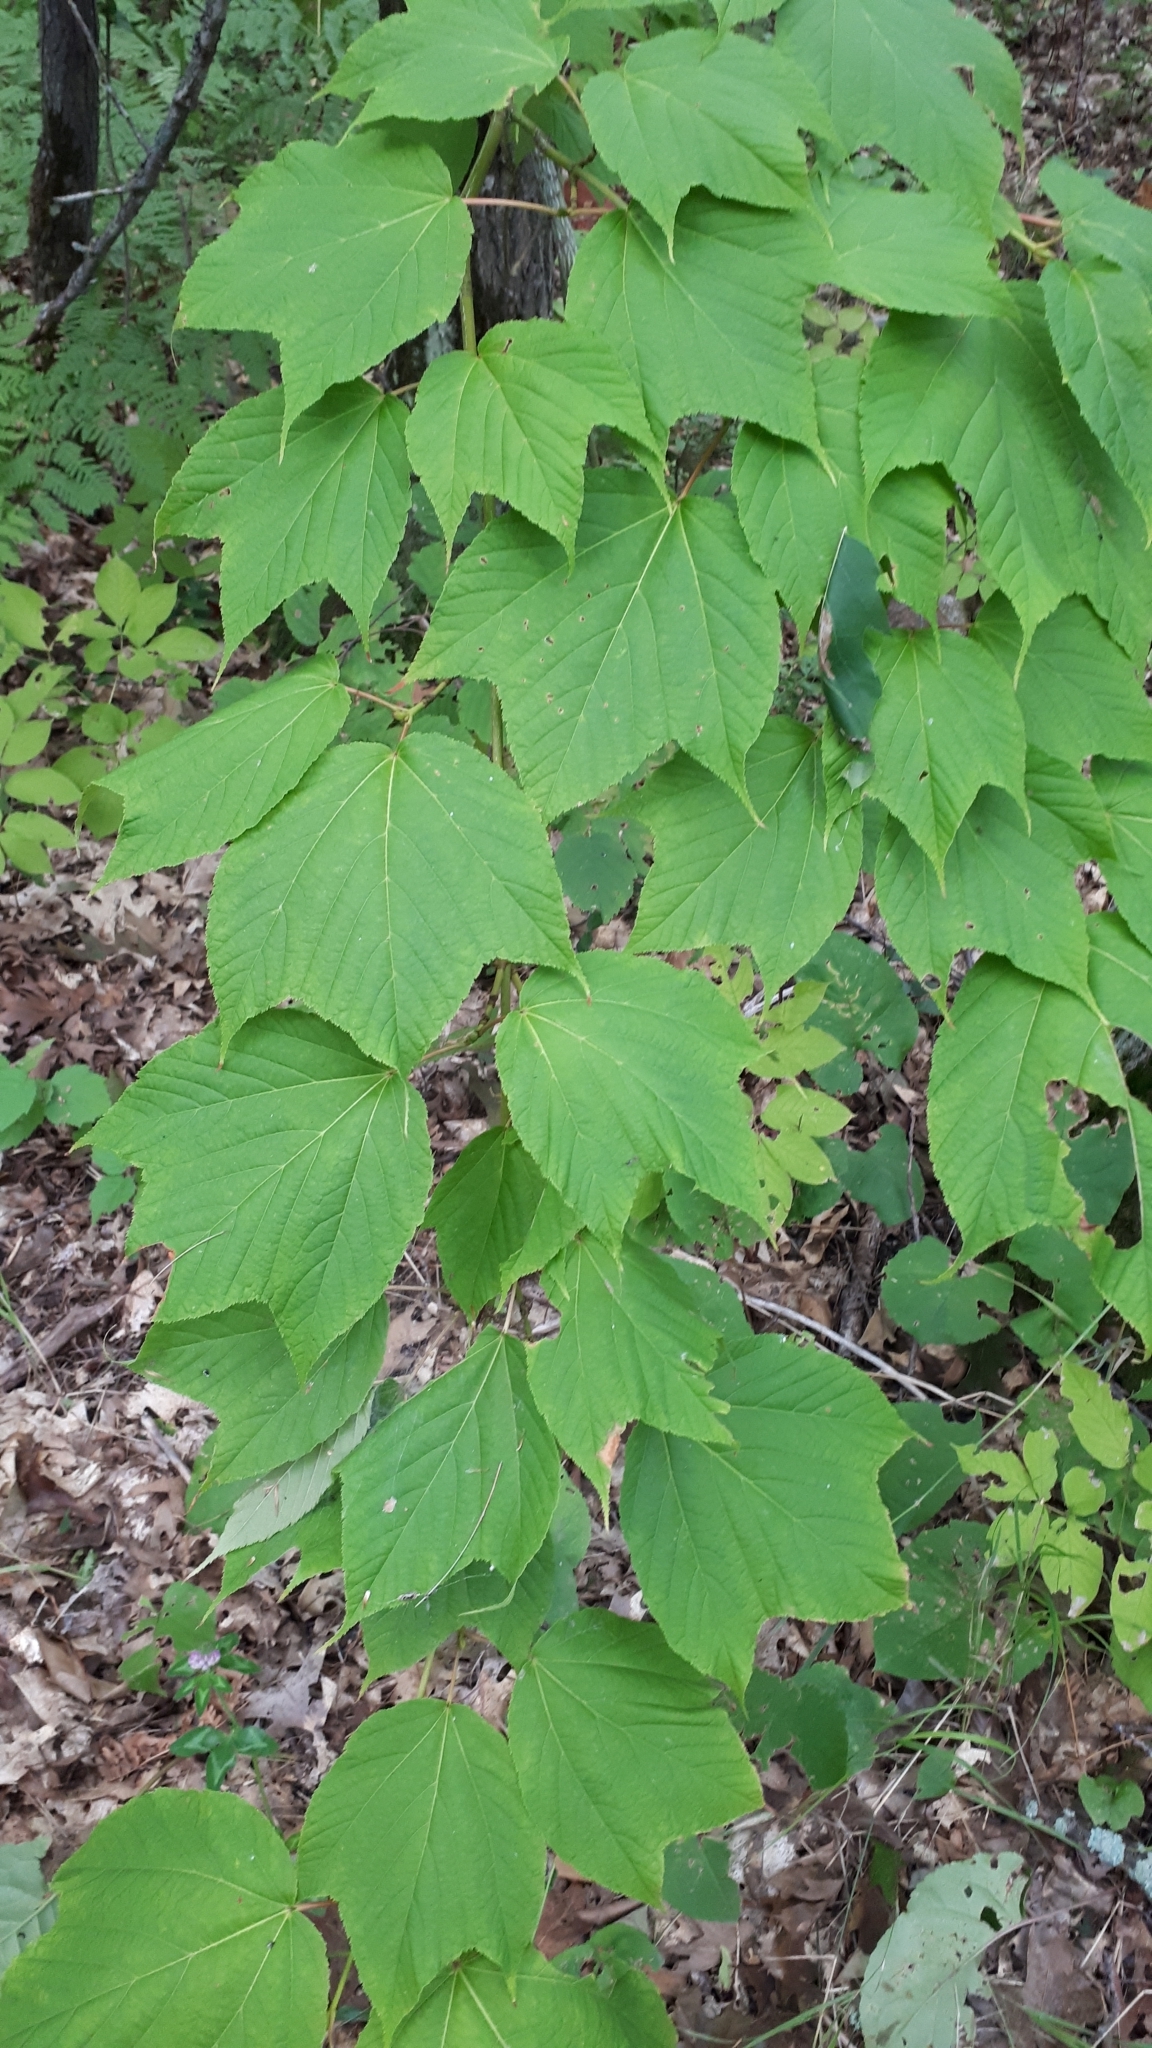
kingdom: Plantae
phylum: Tracheophyta
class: Magnoliopsida
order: Sapindales
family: Sapindaceae
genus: Acer
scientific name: Acer pensylvanicum
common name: Moosewood
